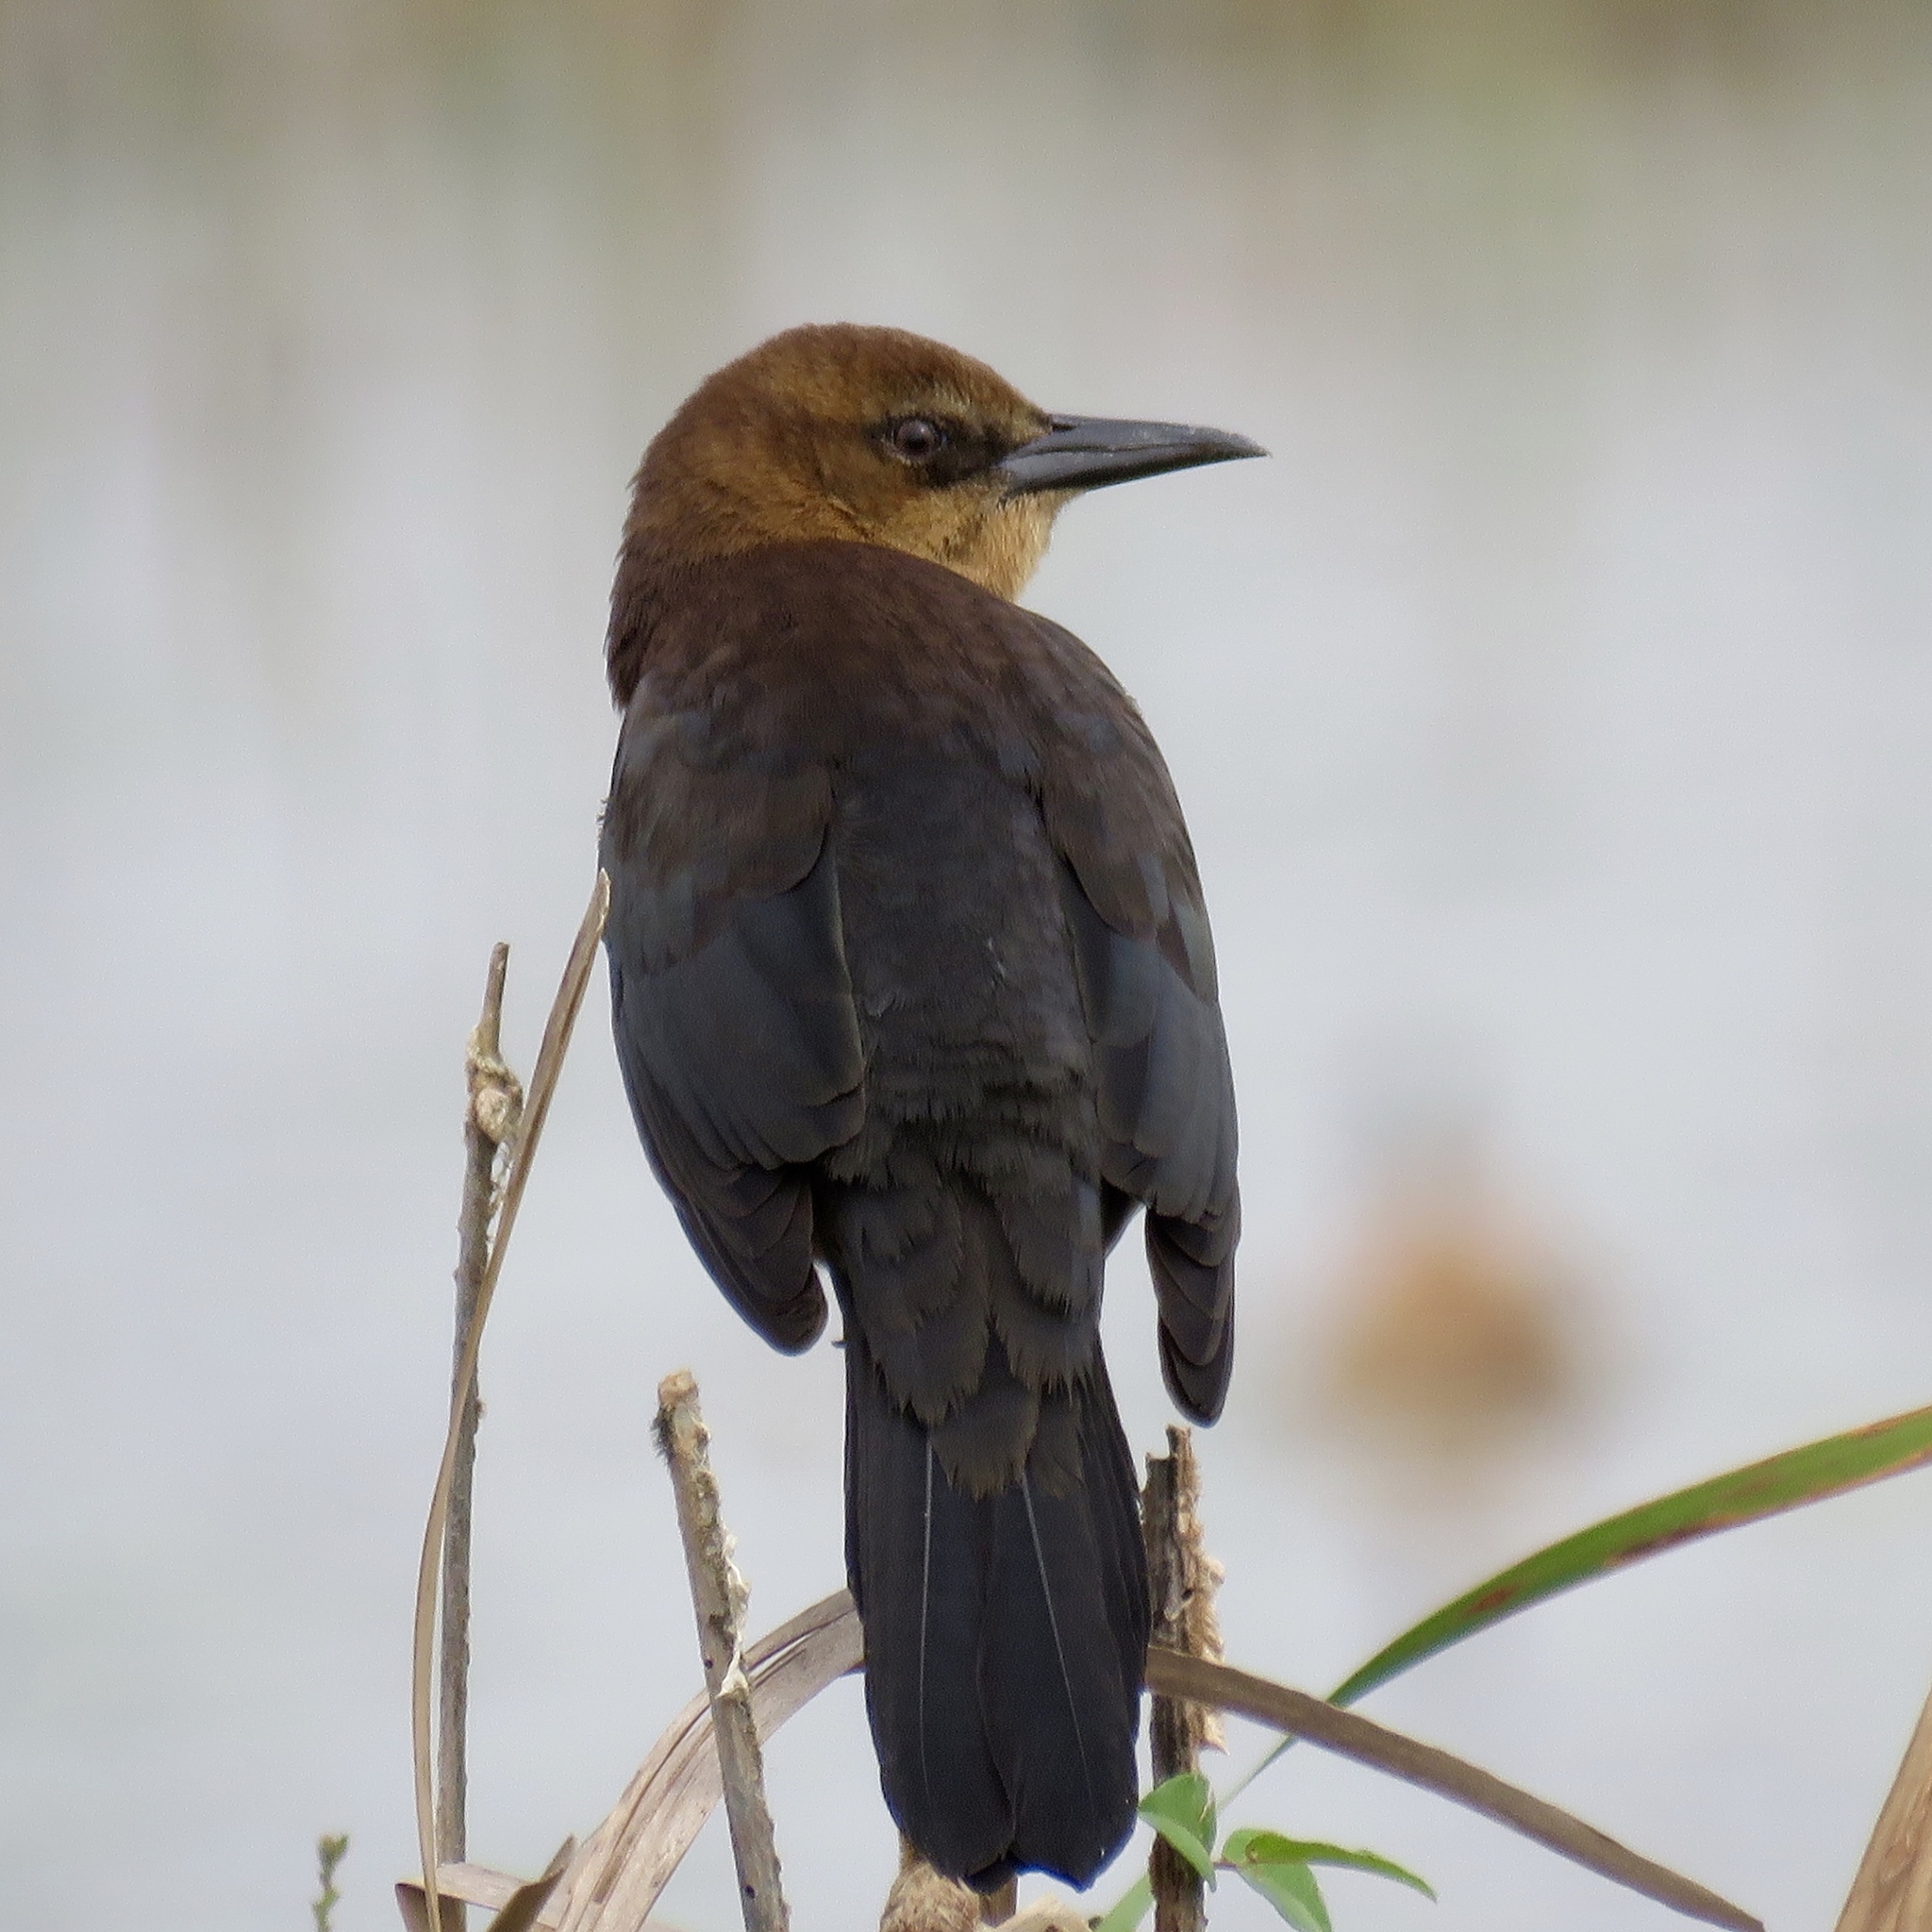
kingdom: Animalia
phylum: Chordata
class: Aves
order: Passeriformes
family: Icteridae
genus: Quiscalus
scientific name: Quiscalus major
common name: Boat-tailed grackle
